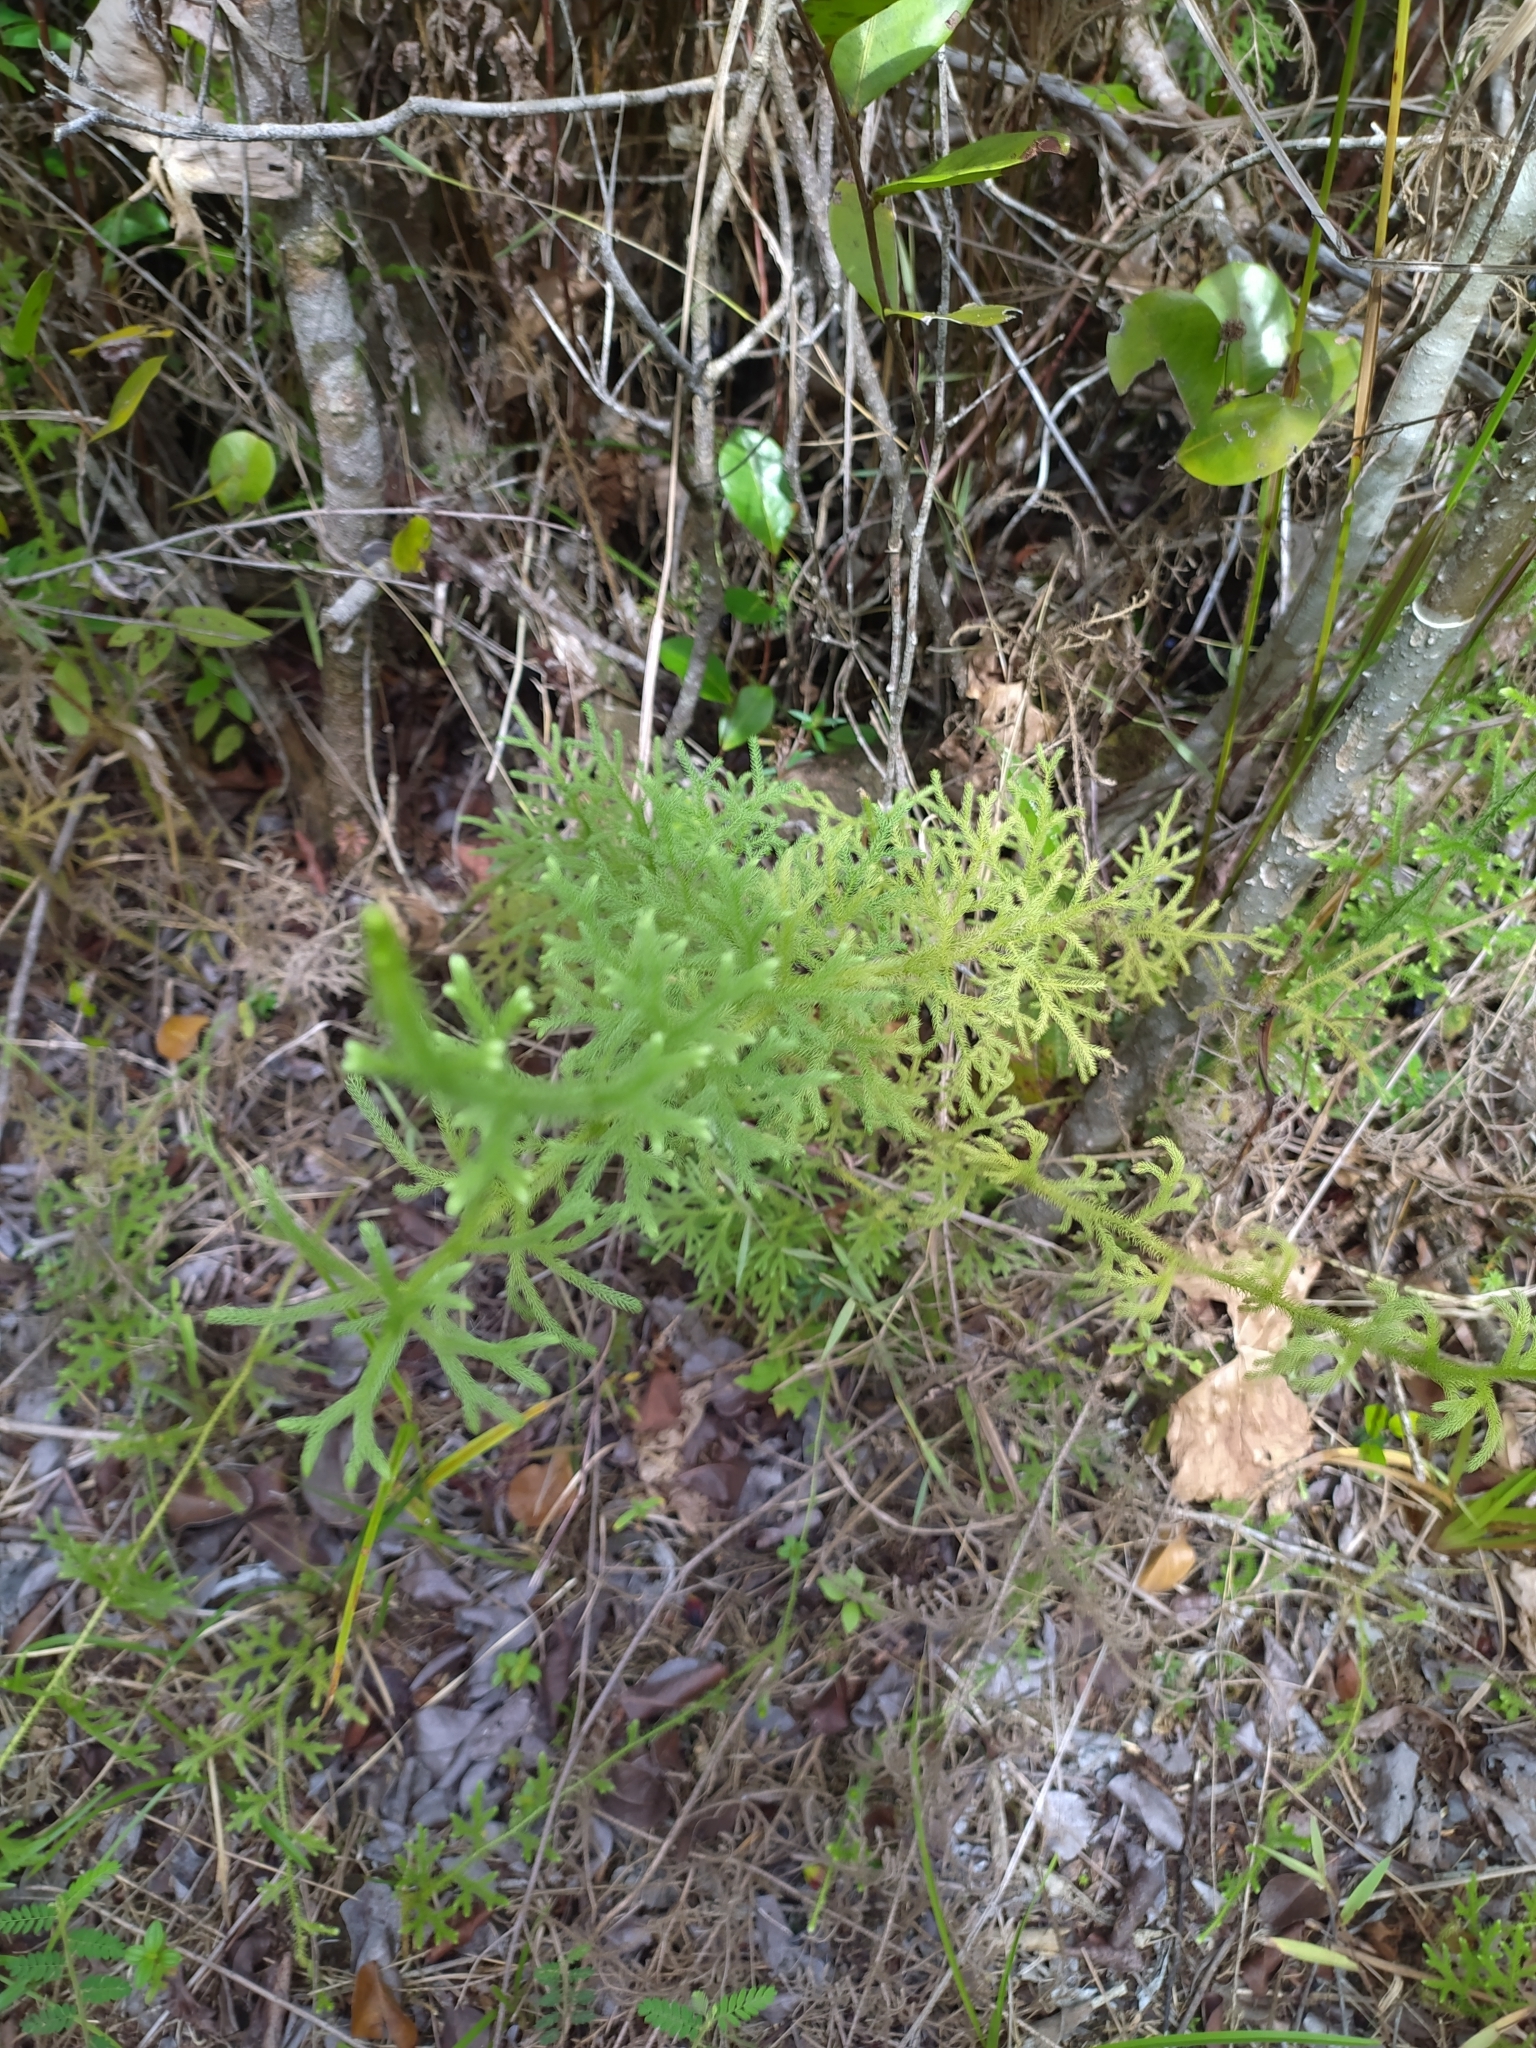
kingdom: Plantae
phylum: Tracheophyta
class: Lycopodiopsida
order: Lycopodiales
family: Lycopodiaceae
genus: Palhinhaea
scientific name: Palhinhaea cernua
